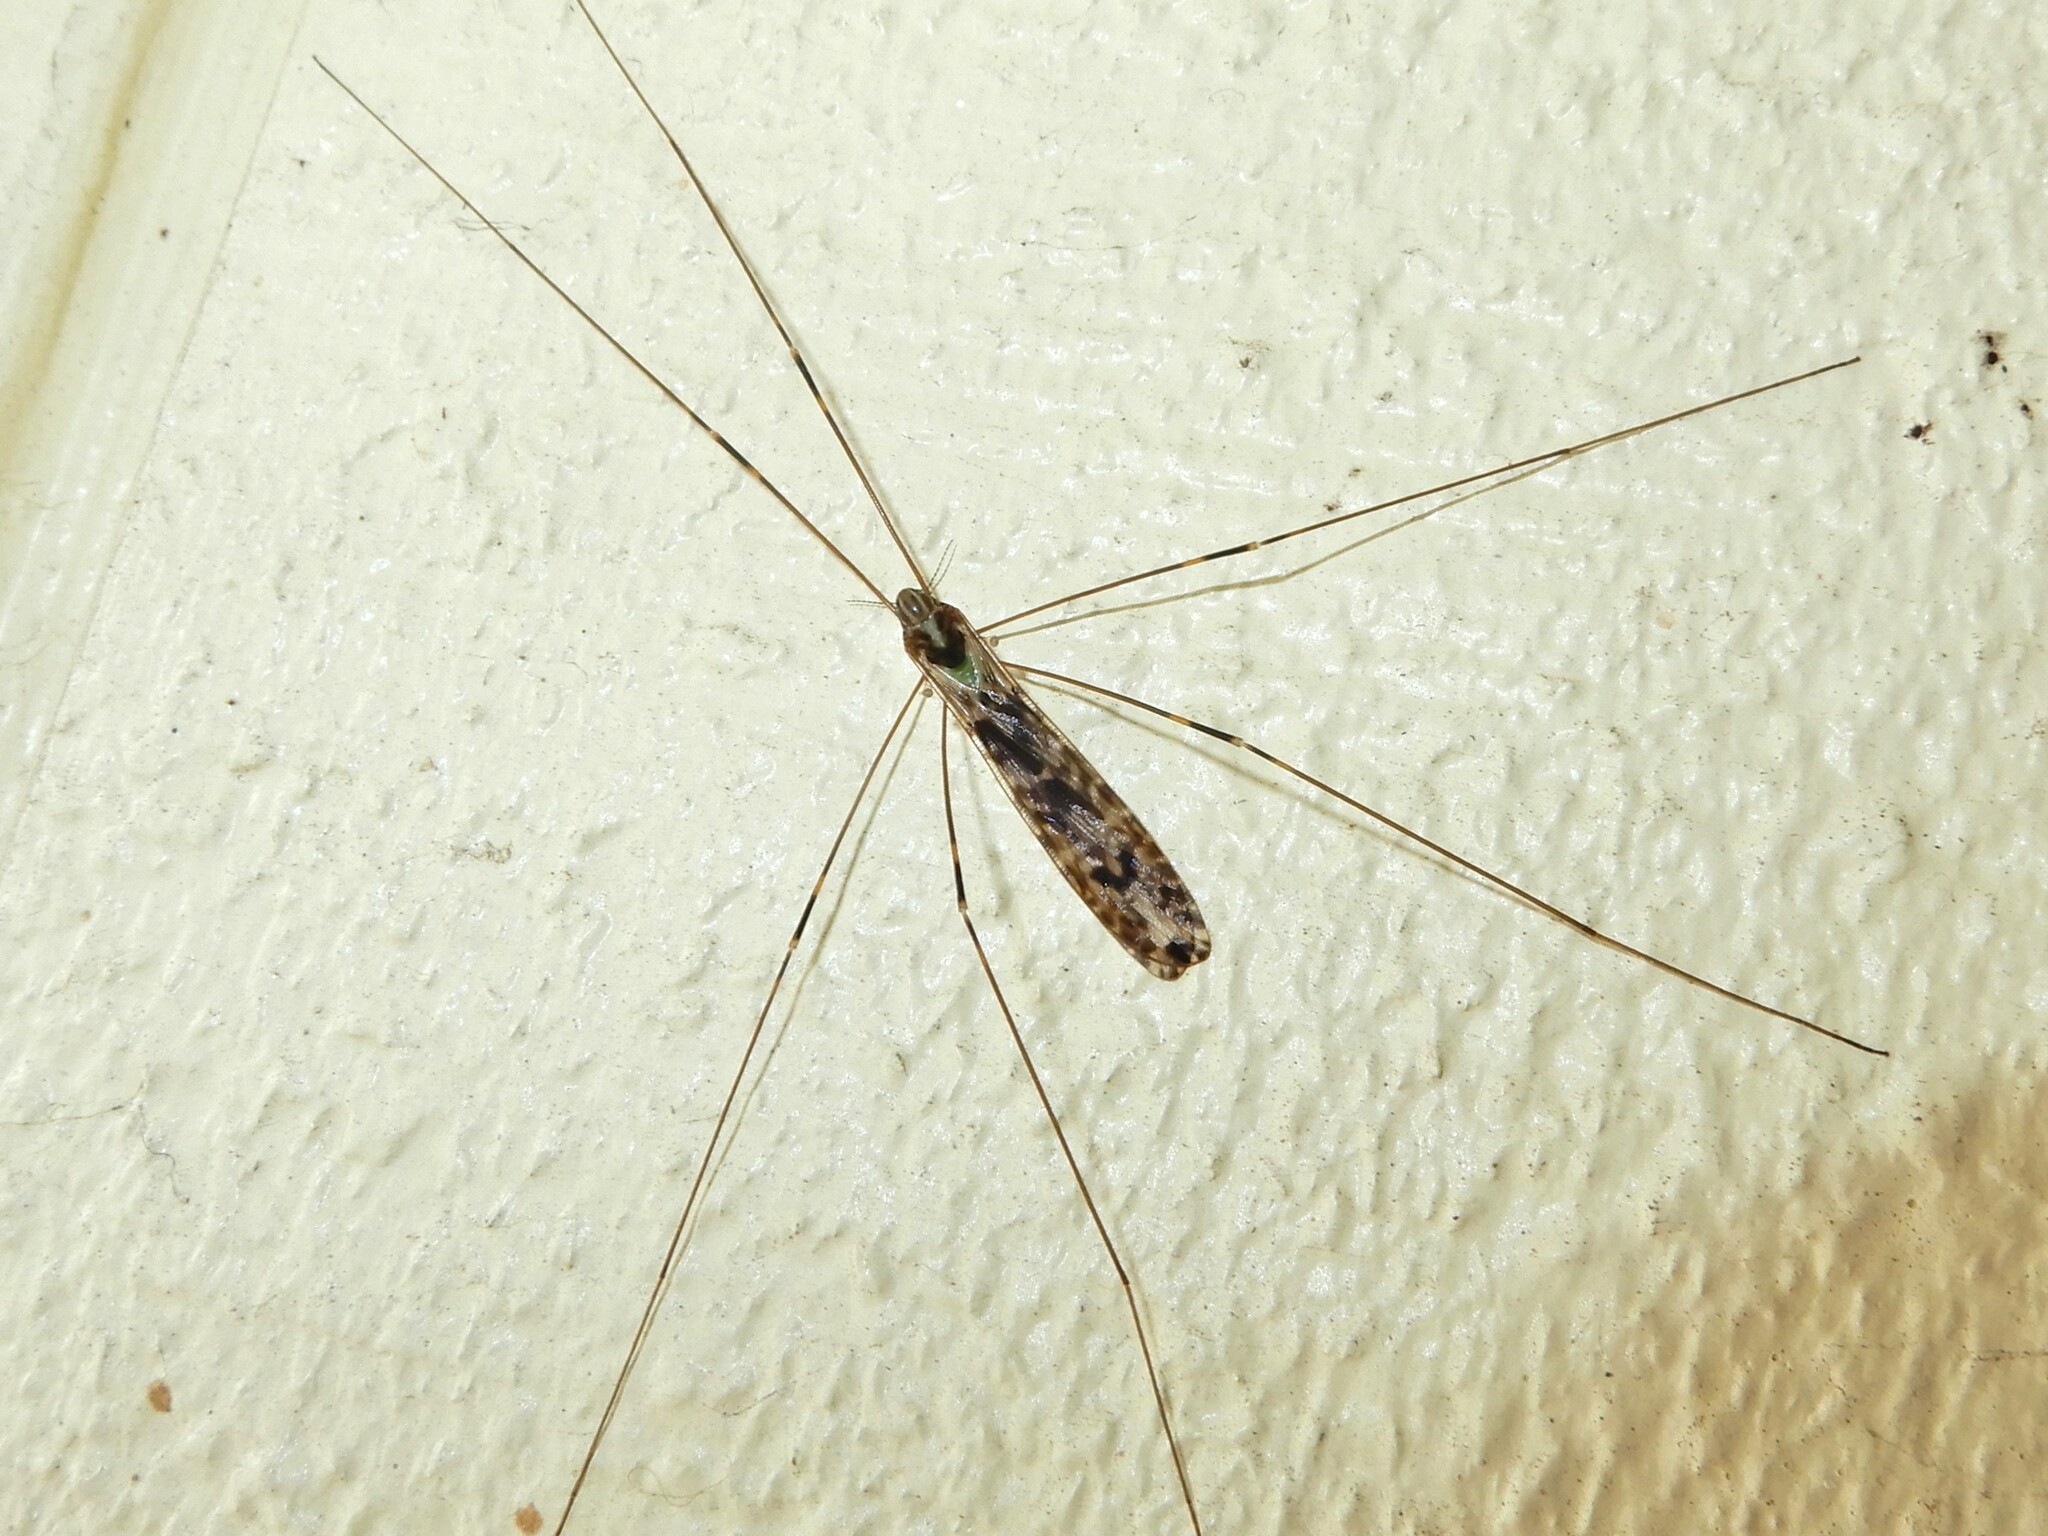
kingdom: Animalia
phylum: Arthropoda
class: Insecta
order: Diptera
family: Limoniidae
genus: Discobola
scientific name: Discobola dohrni
